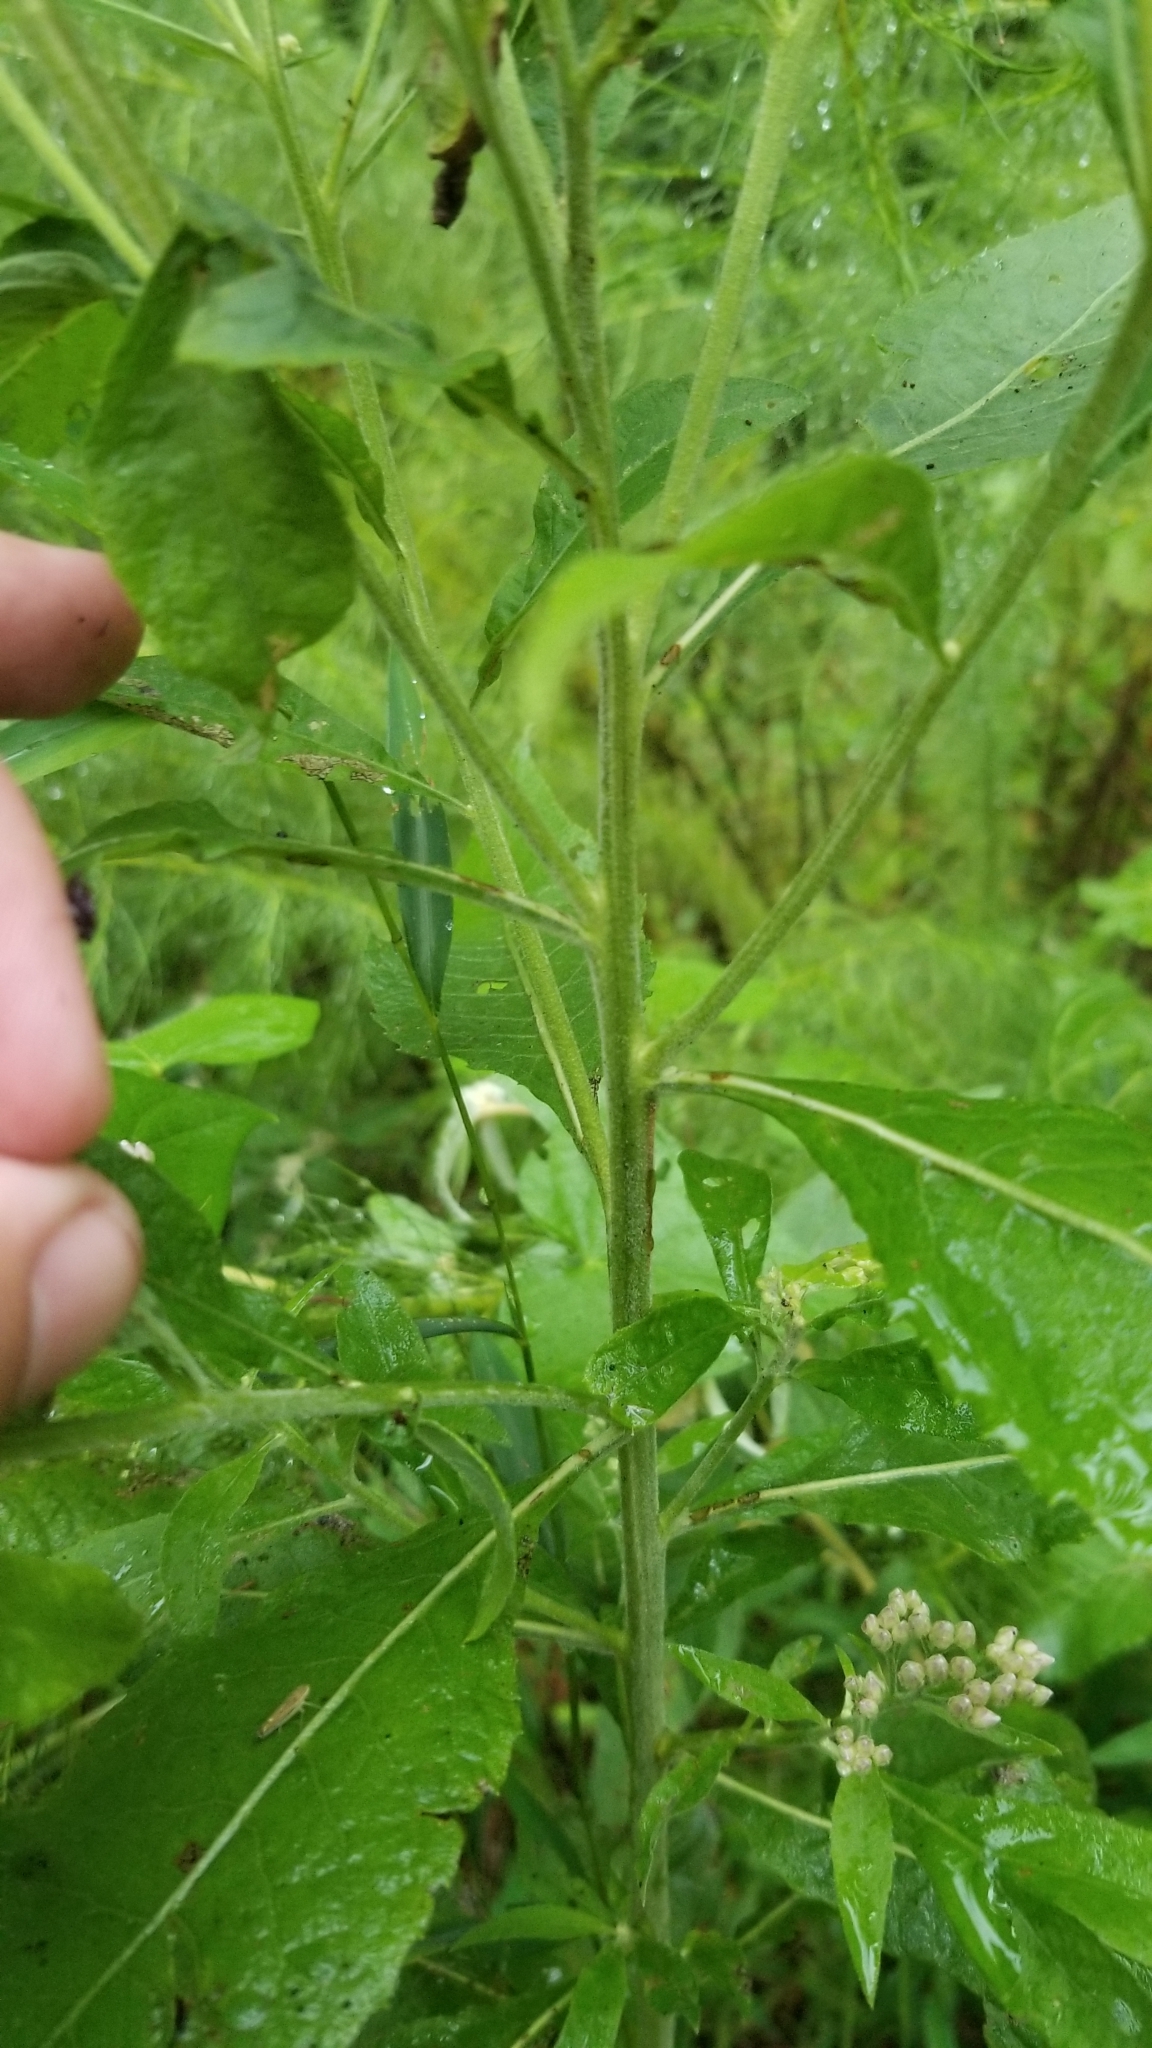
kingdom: Plantae
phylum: Tracheophyta
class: Magnoliopsida
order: Asterales
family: Asteraceae
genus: Pluchea
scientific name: Pluchea camphorata
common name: Camphor pluchea
